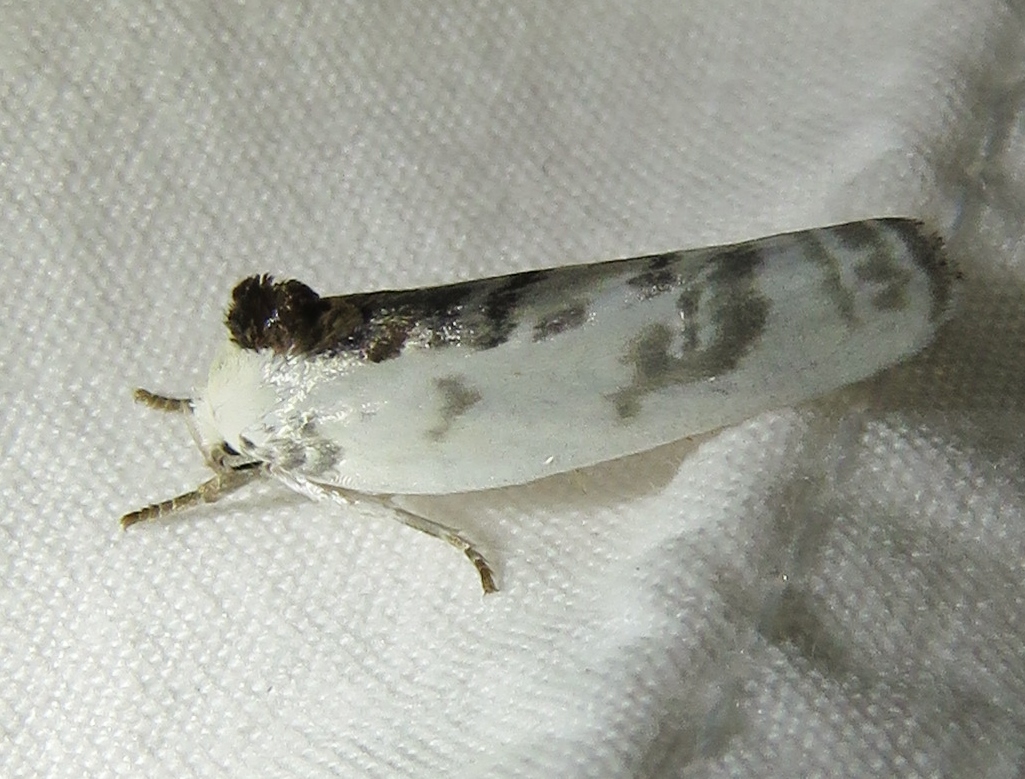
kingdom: Animalia
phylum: Arthropoda
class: Insecta
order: Lepidoptera
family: Depressariidae
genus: Antaeotricha
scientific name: Antaeotricha schlaegeri
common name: Schlaeger's fruitworm moth
